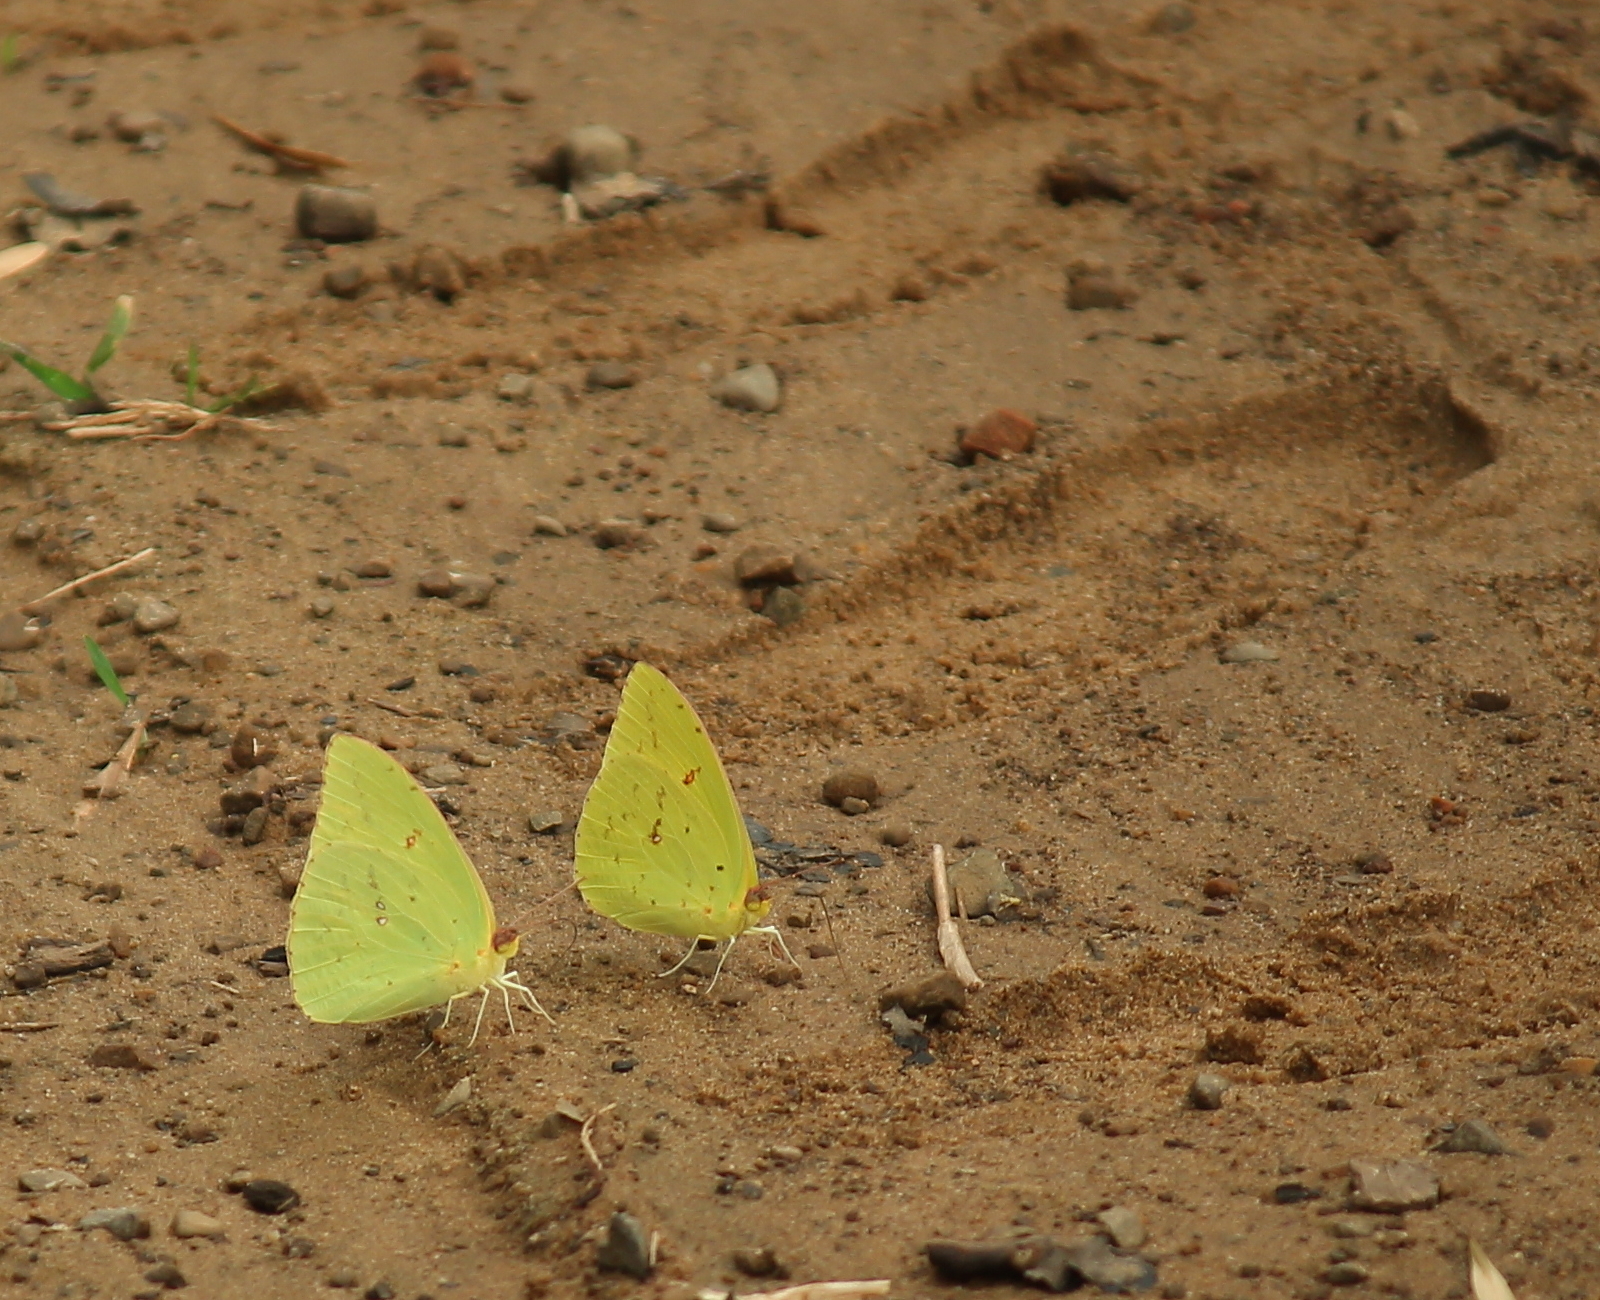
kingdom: Animalia
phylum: Arthropoda
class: Insecta
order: Lepidoptera
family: Pieridae
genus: Phoebis
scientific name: Phoebis sennae
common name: Cloudless sulphur
